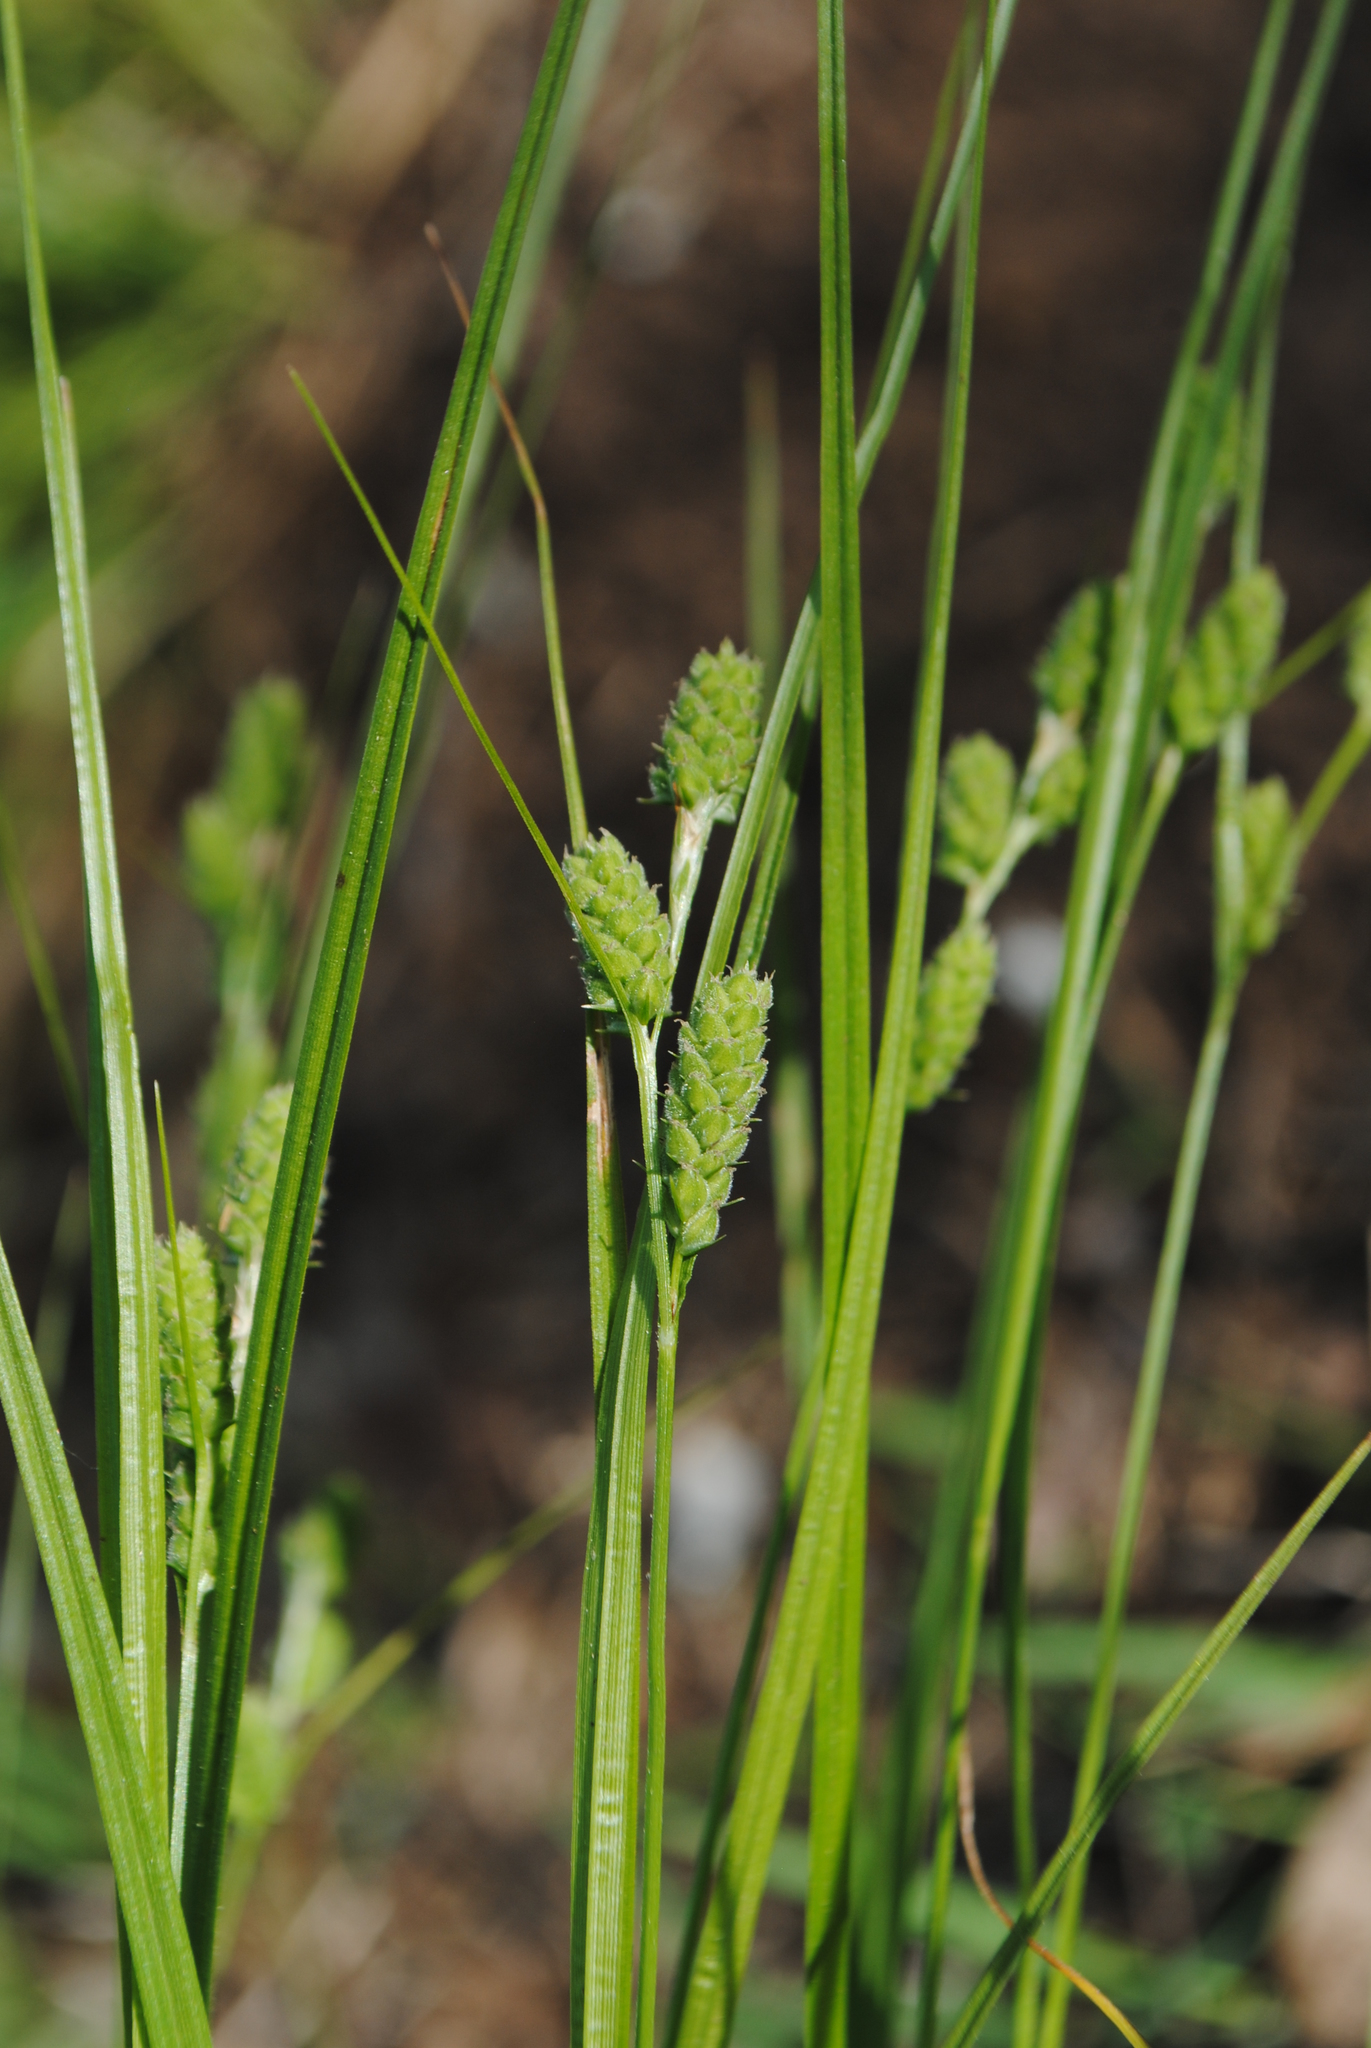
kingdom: Plantae
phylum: Tracheophyta
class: Liliopsida
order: Poales
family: Cyperaceae
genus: Carex
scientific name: Carex swanii
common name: Downy green sedge
